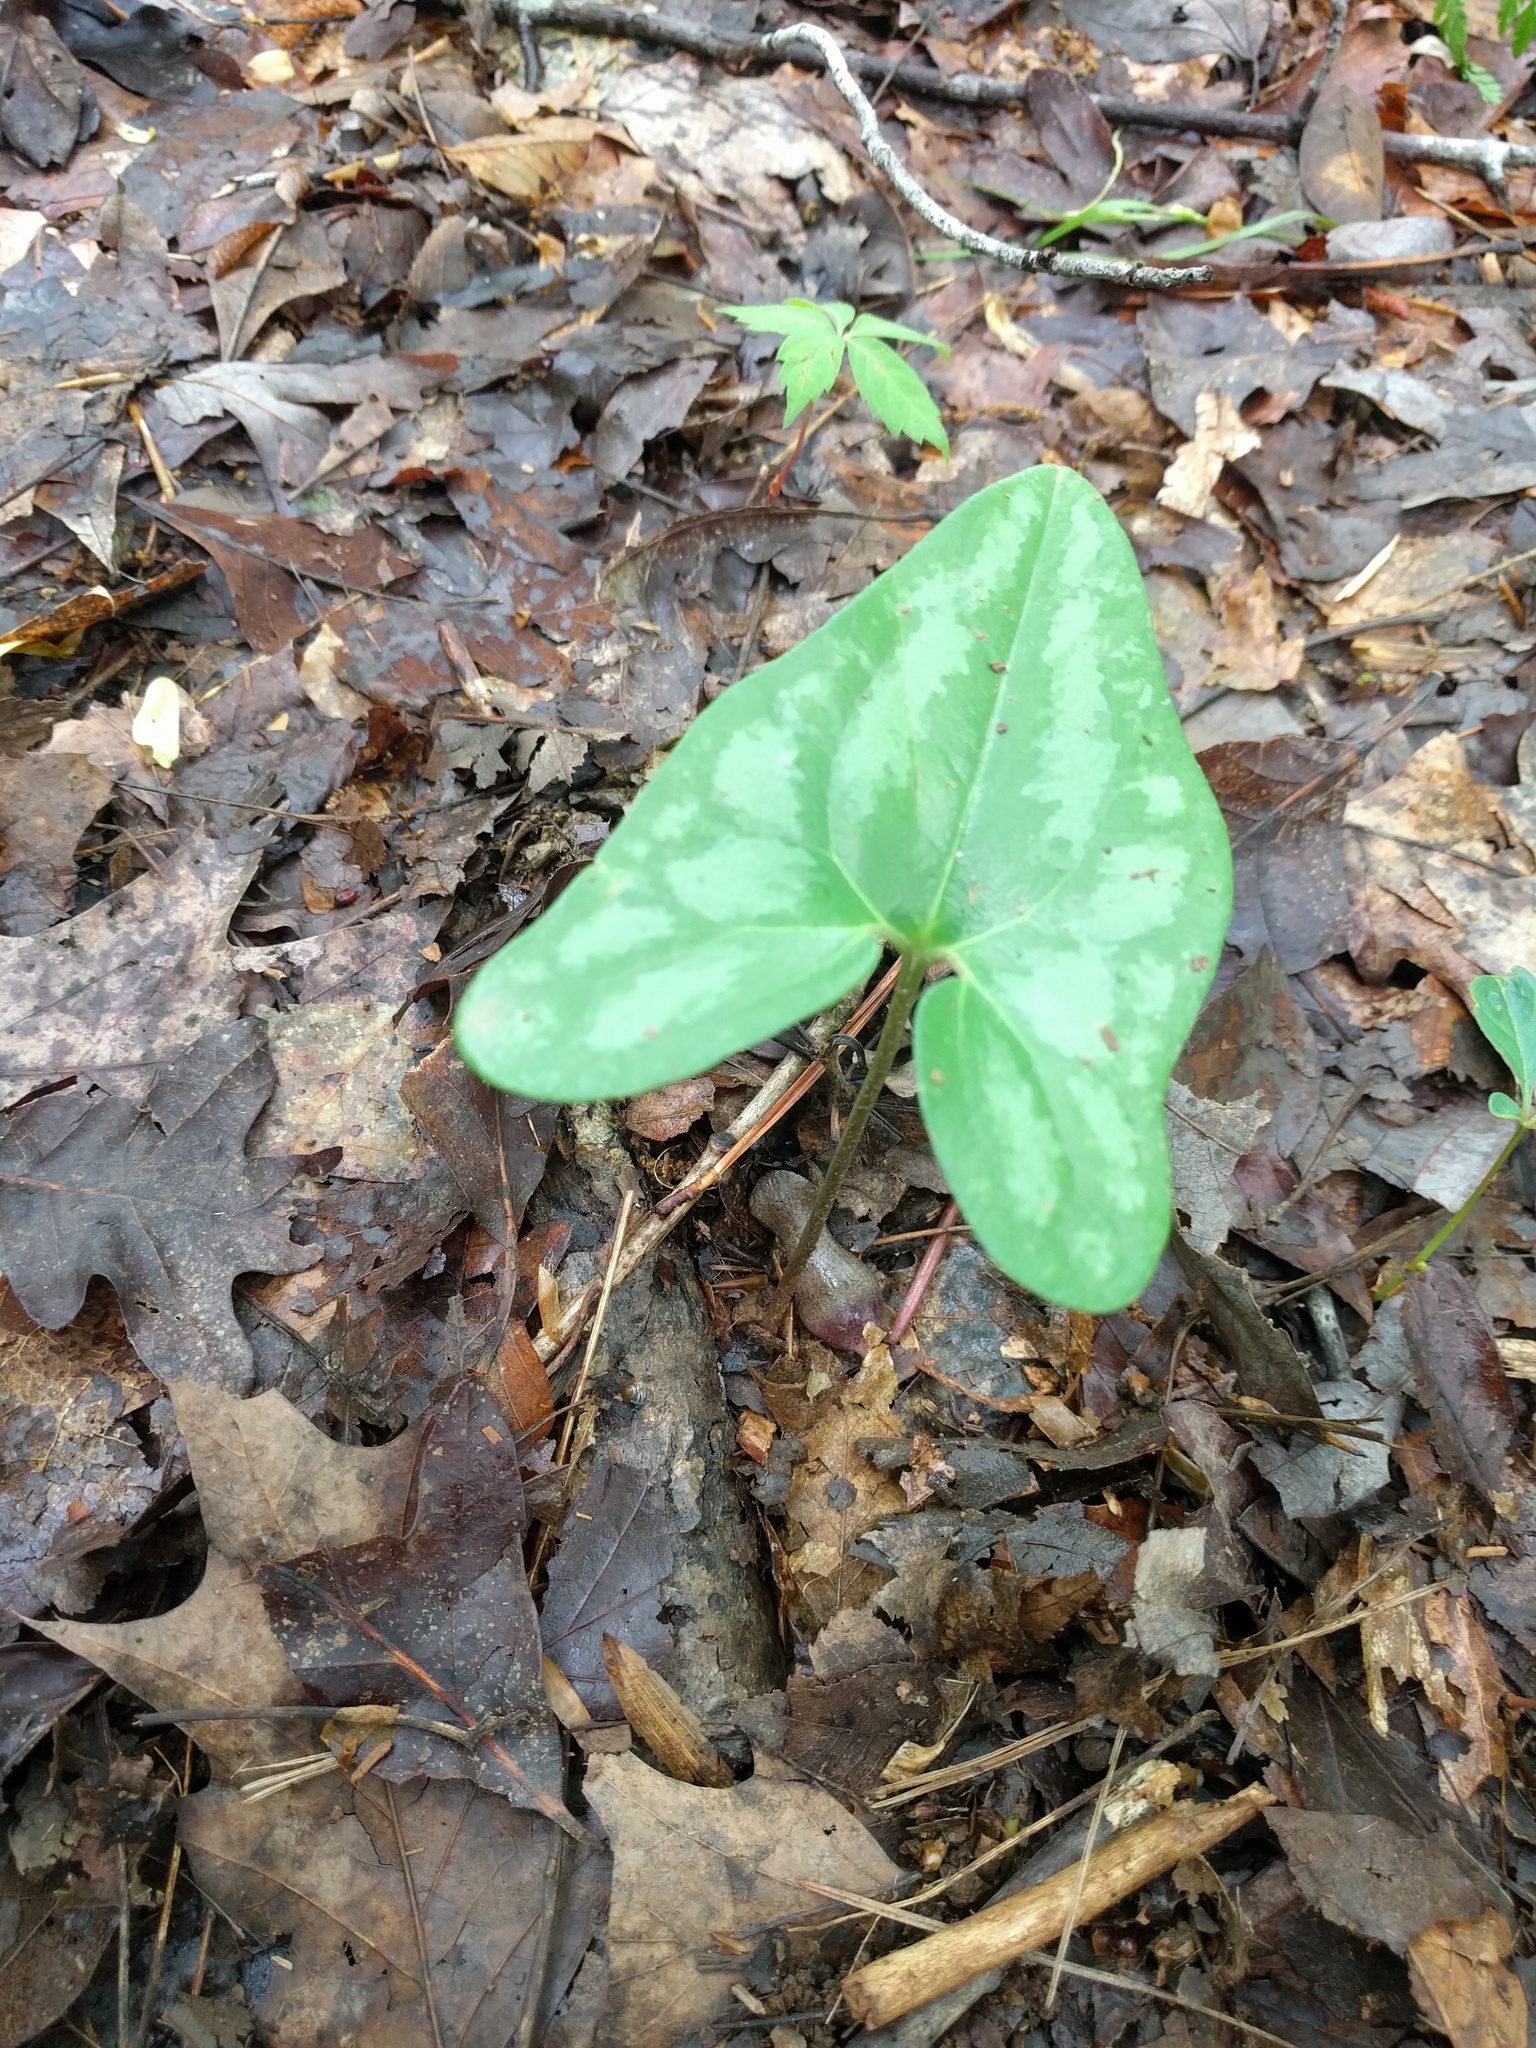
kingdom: Plantae
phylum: Tracheophyta
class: Magnoliopsida
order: Piperales
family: Aristolochiaceae
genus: Hexastylis
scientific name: Hexastylis arifolia
